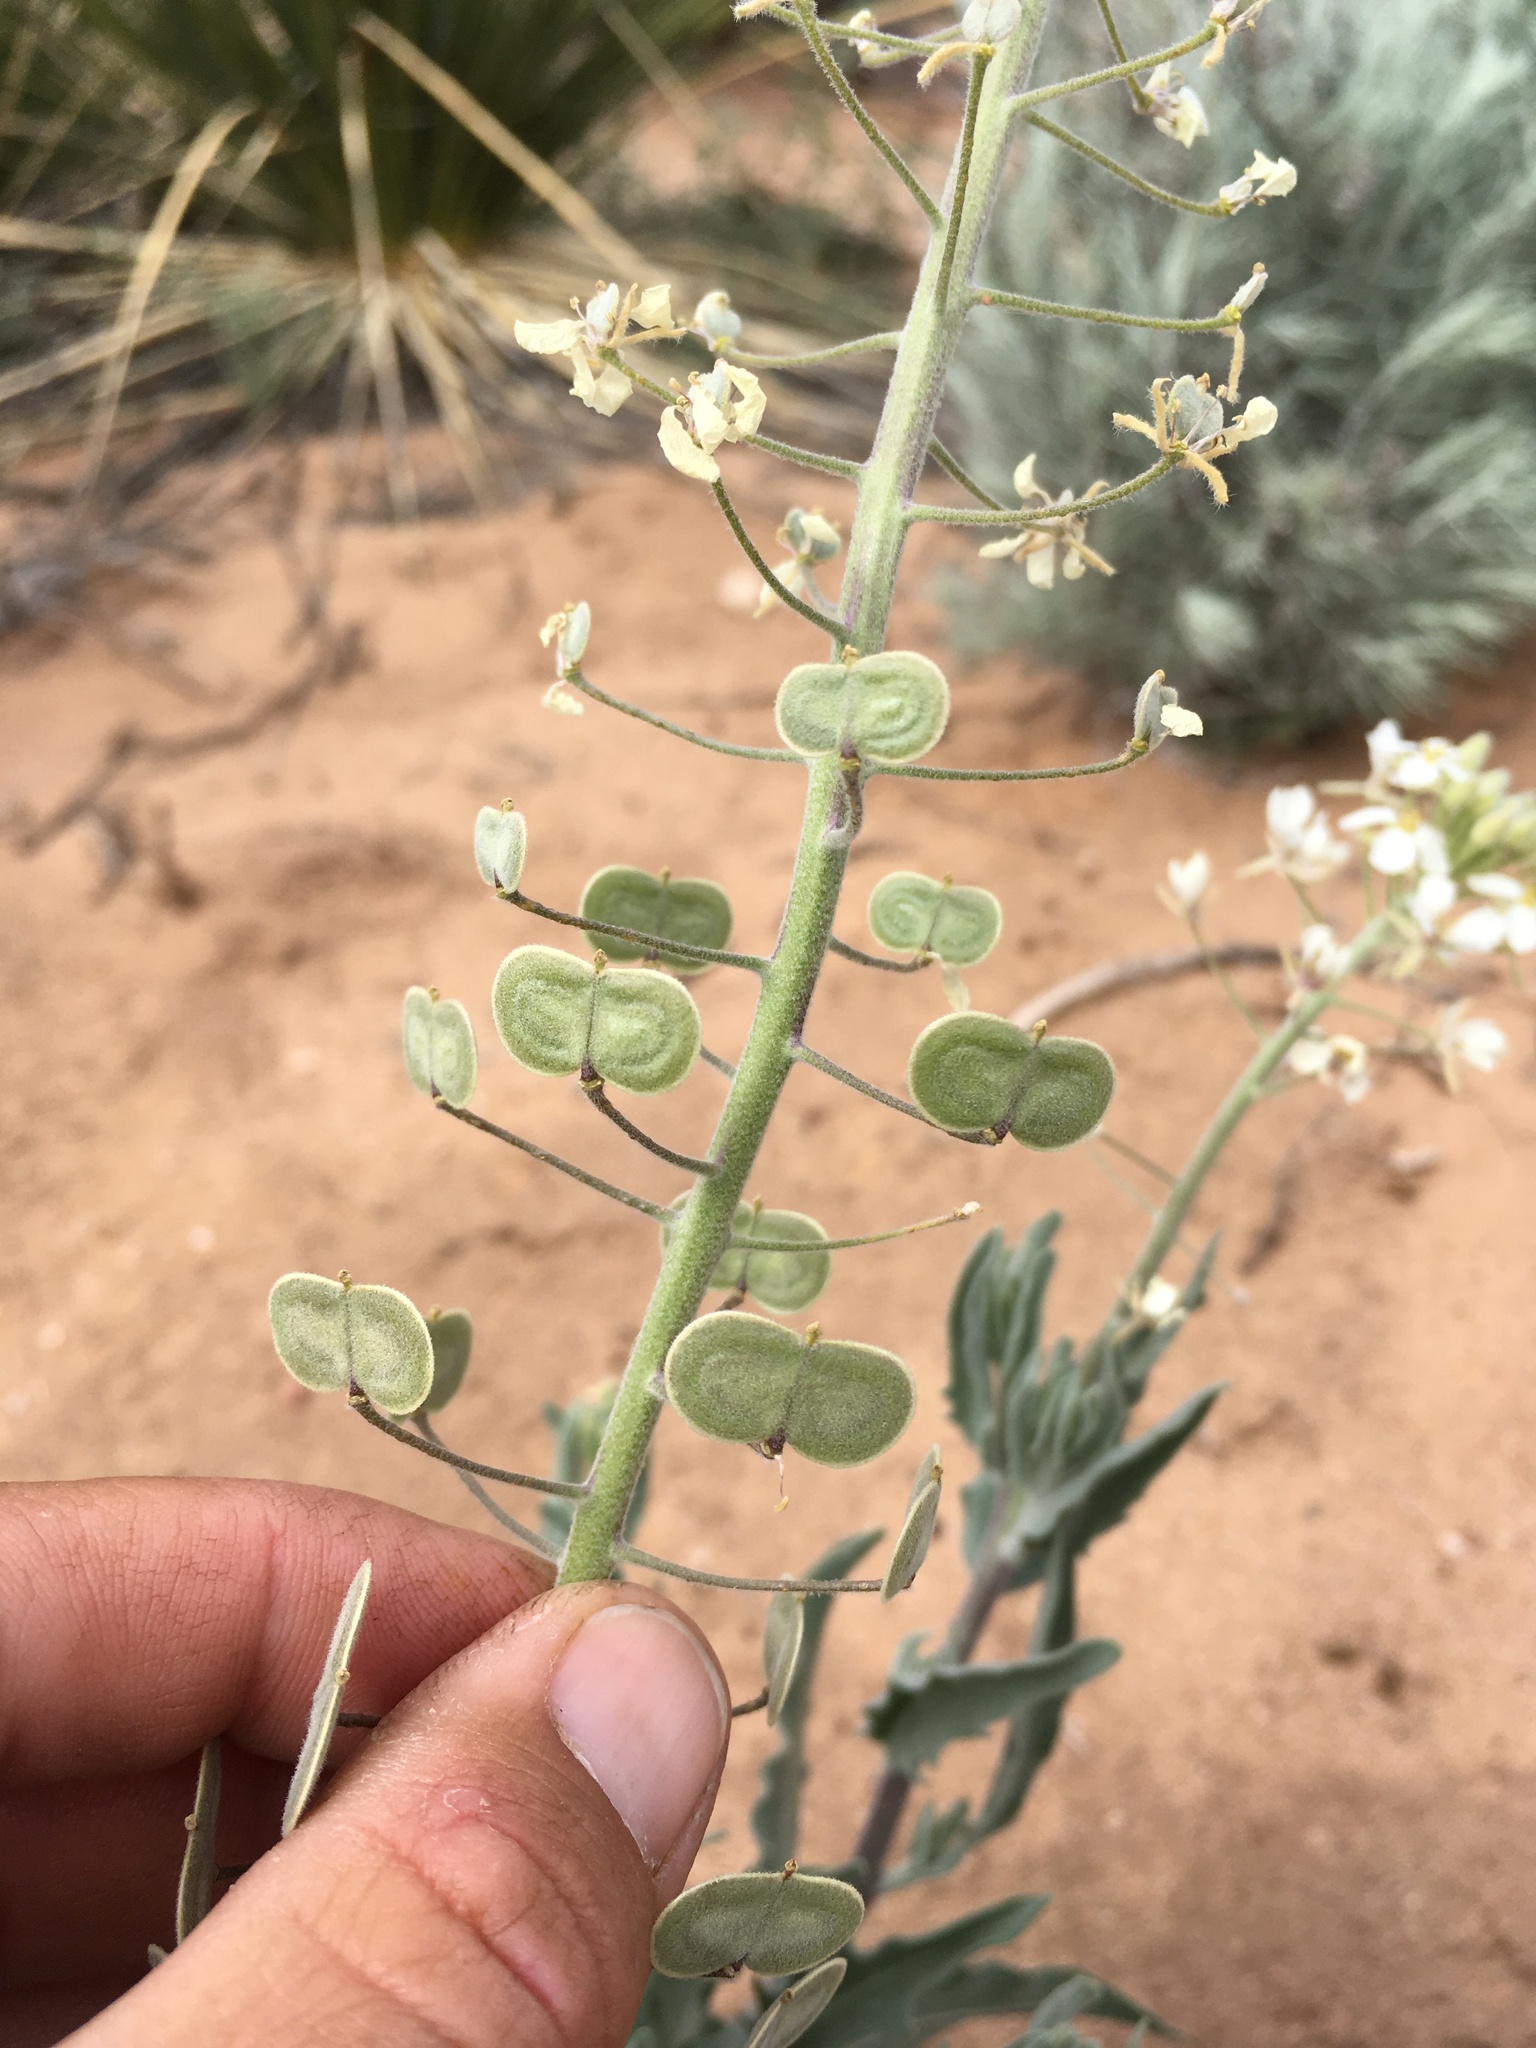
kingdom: Plantae
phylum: Tracheophyta
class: Magnoliopsida
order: Brassicales
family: Brassicaceae
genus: Dimorphocarpa
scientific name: Dimorphocarpa wislizenii
